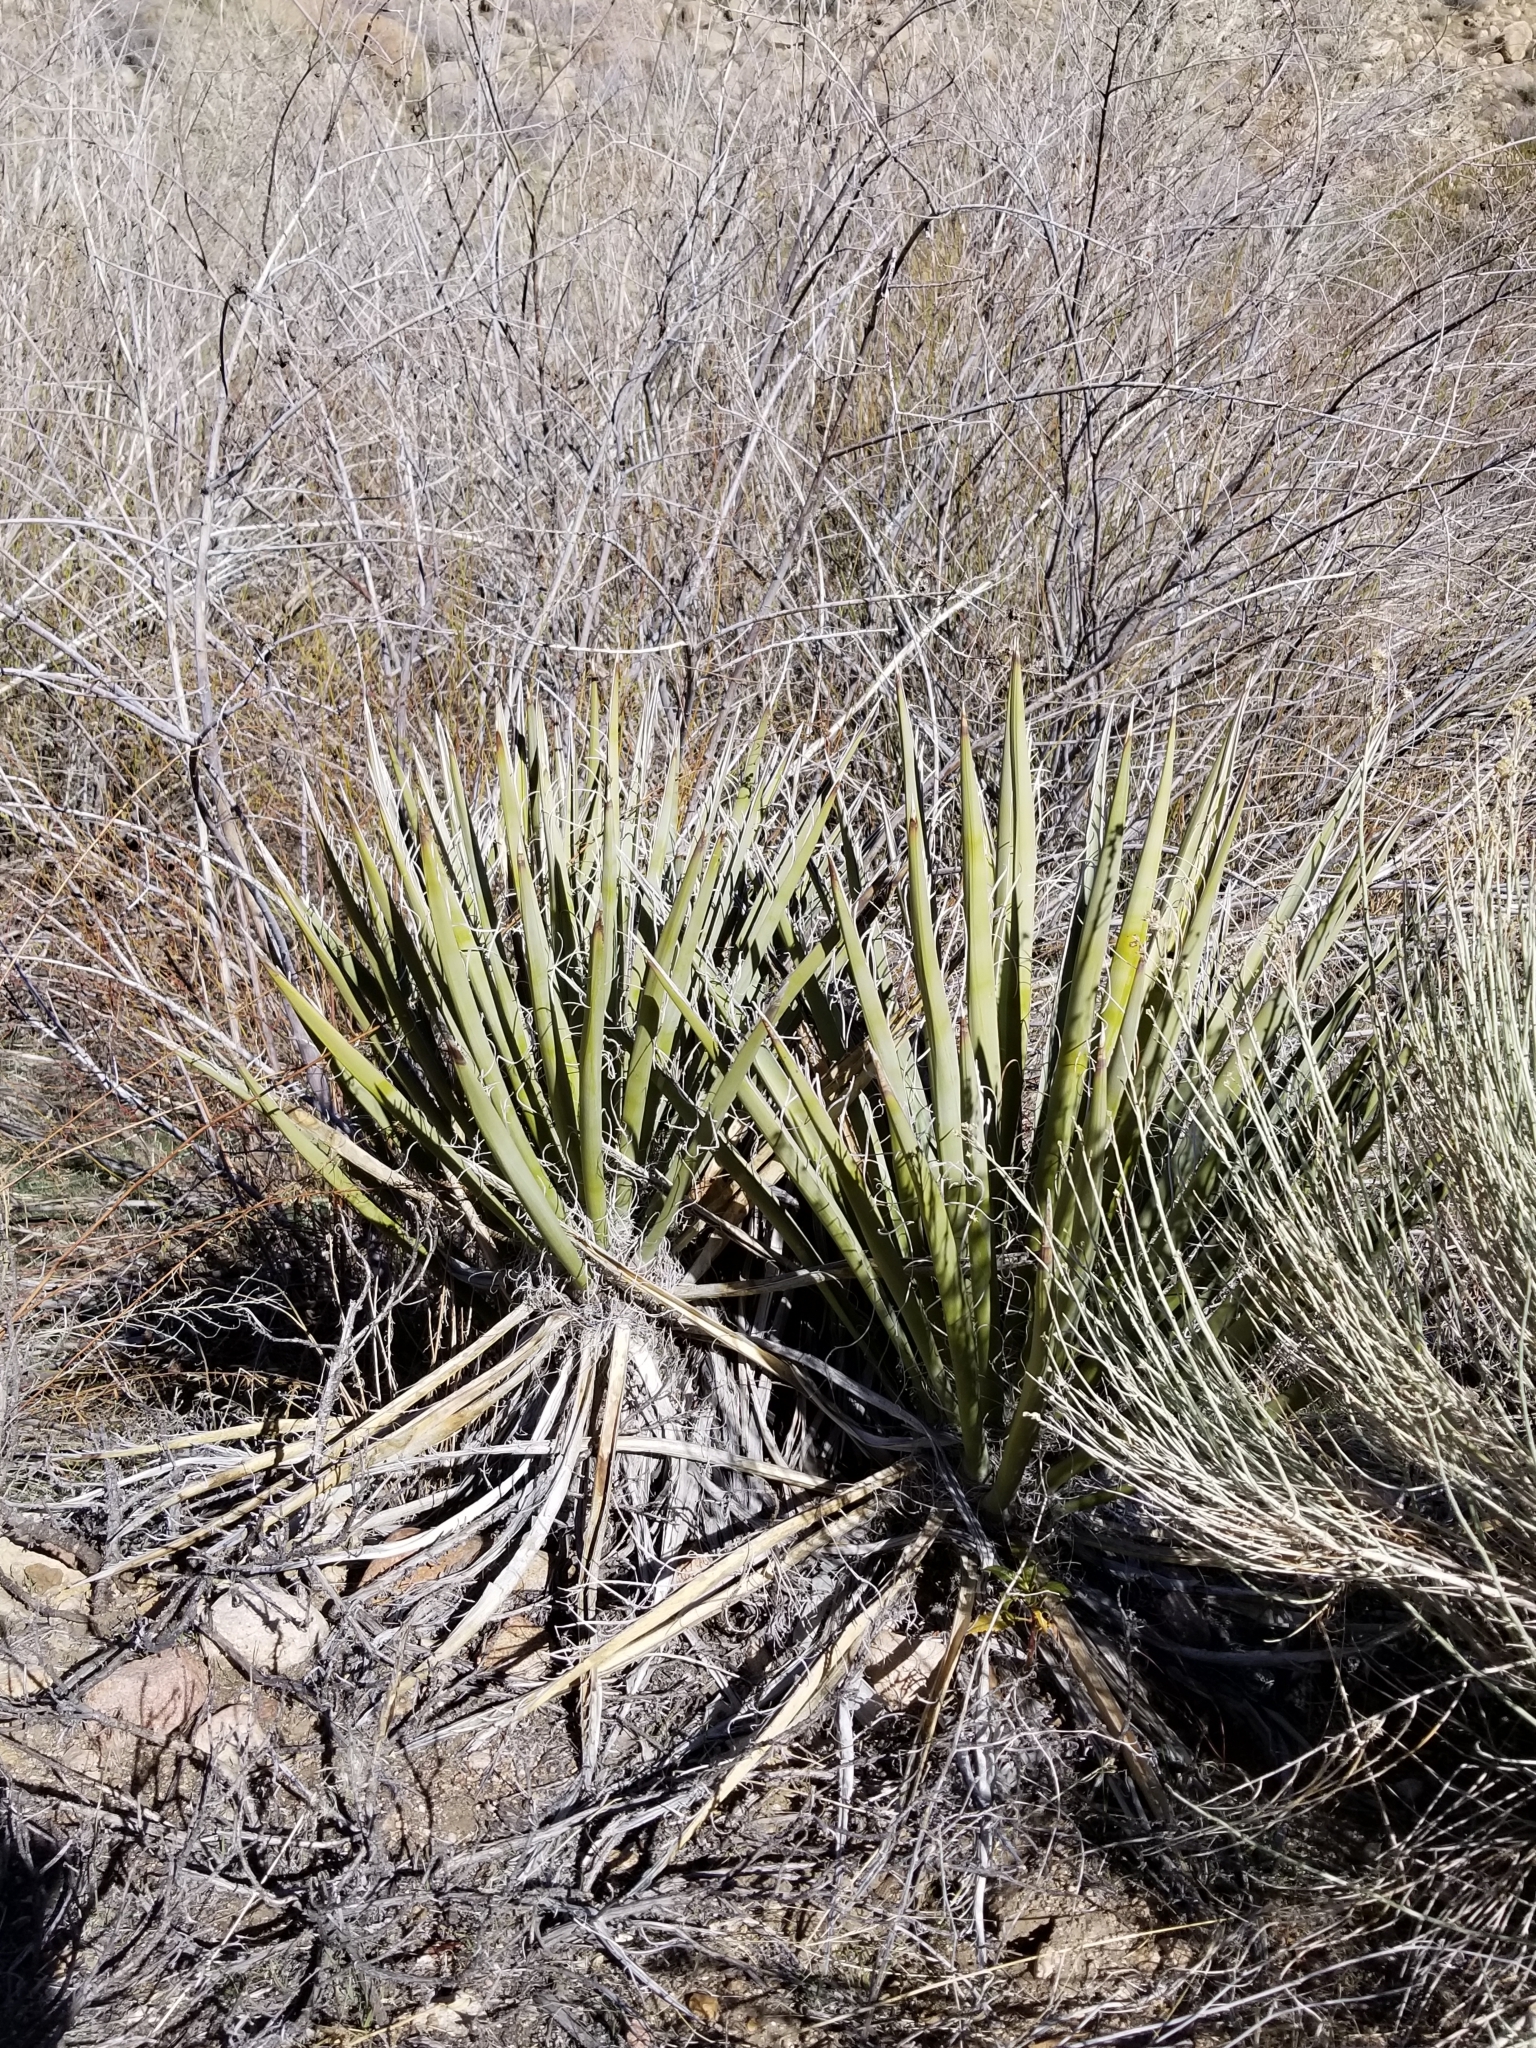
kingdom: Plantae
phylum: Tracheophyta
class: Liliopsida
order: Asparagales
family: Asparagaceae
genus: Yucca
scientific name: Yucca schidigera
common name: Mojave yucca
